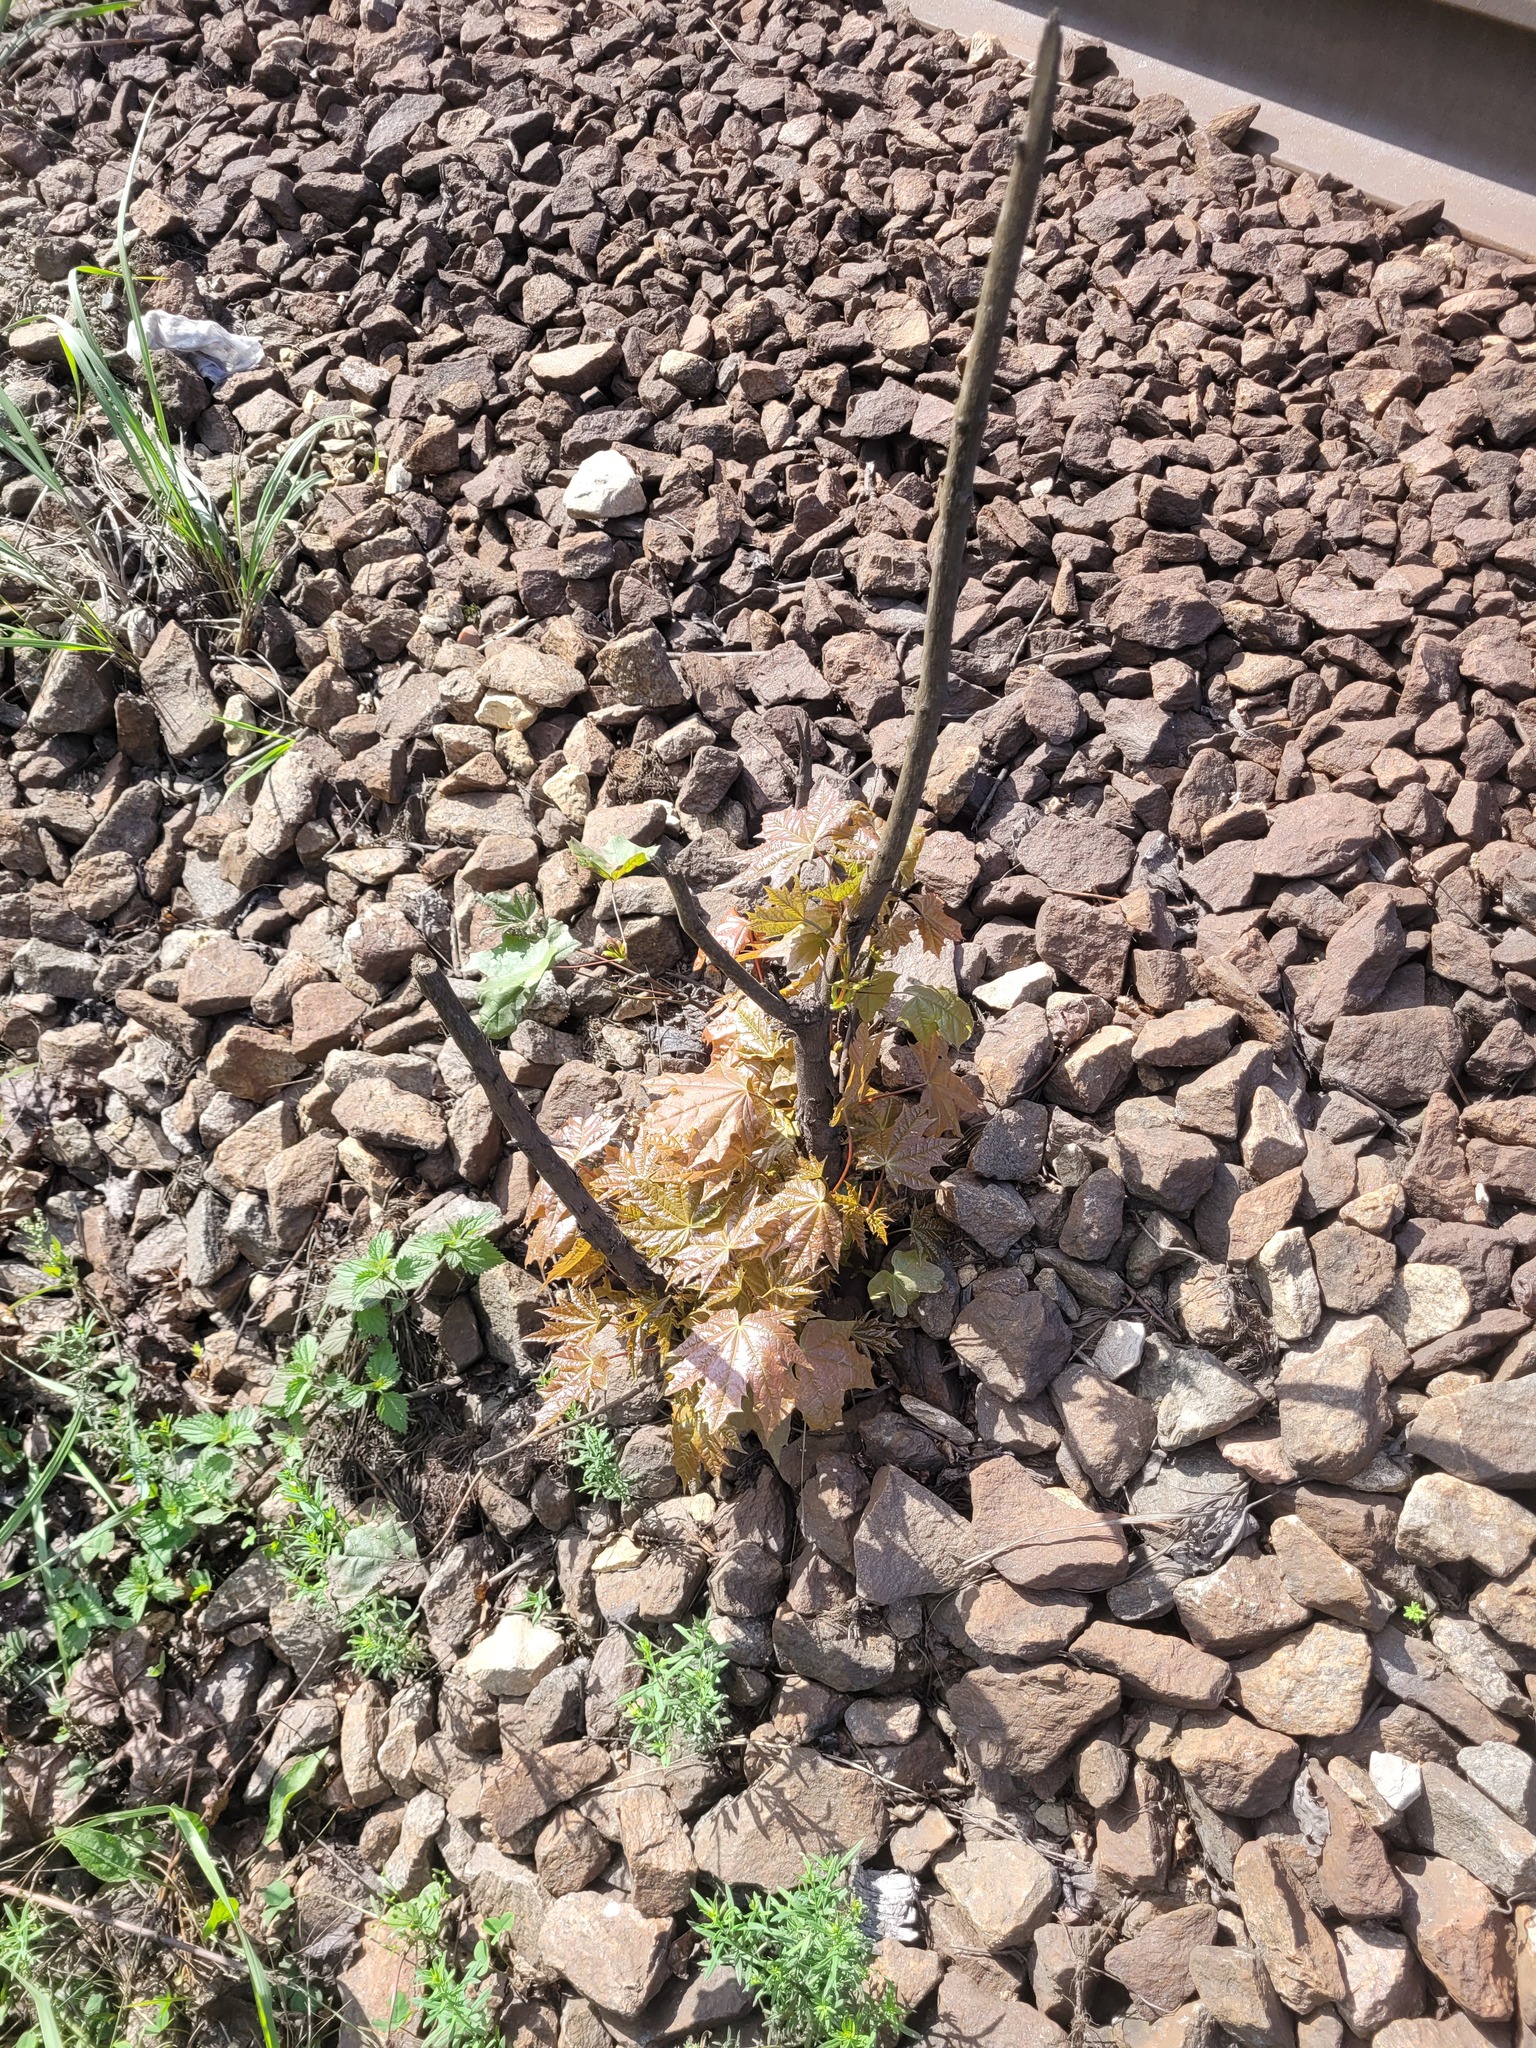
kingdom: Plantae
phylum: Tracheophyta
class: Magnoliopsida
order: Sapindales
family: Sapindaceae
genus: Acer
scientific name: Acer platanoides
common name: Norway maple
